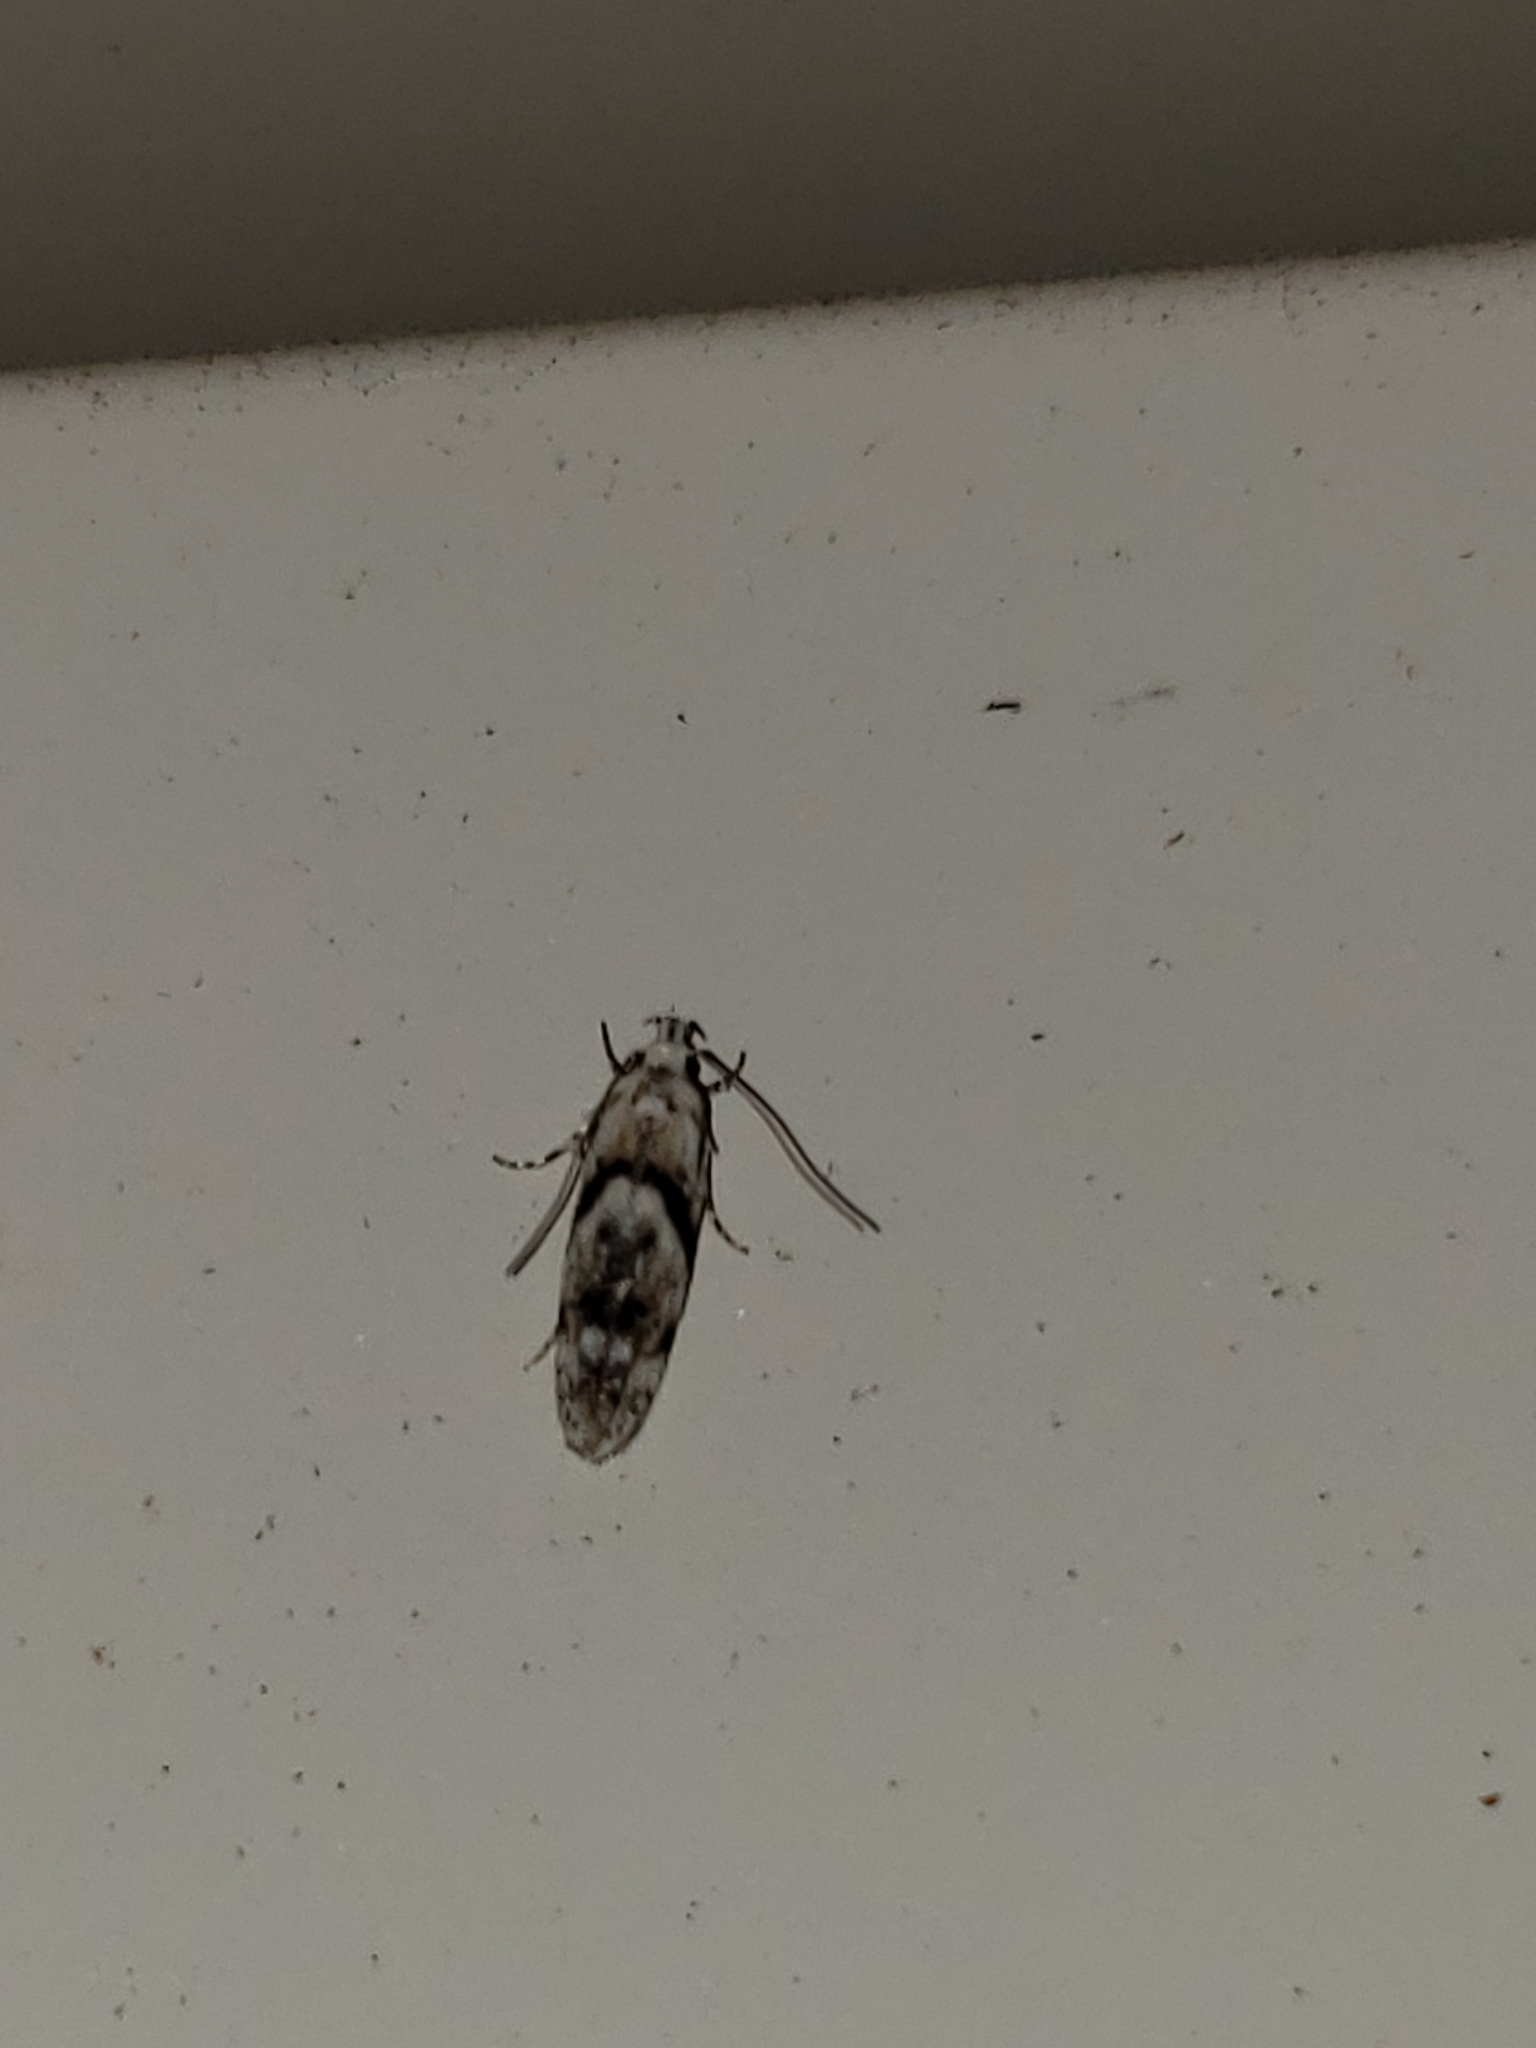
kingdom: Animalia
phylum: Arthropoda
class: Insecta
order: Lepidoptera
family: Gelechiidae
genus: Arogalea
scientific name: Arogalea cristifasciella
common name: White stripe-backed moth
